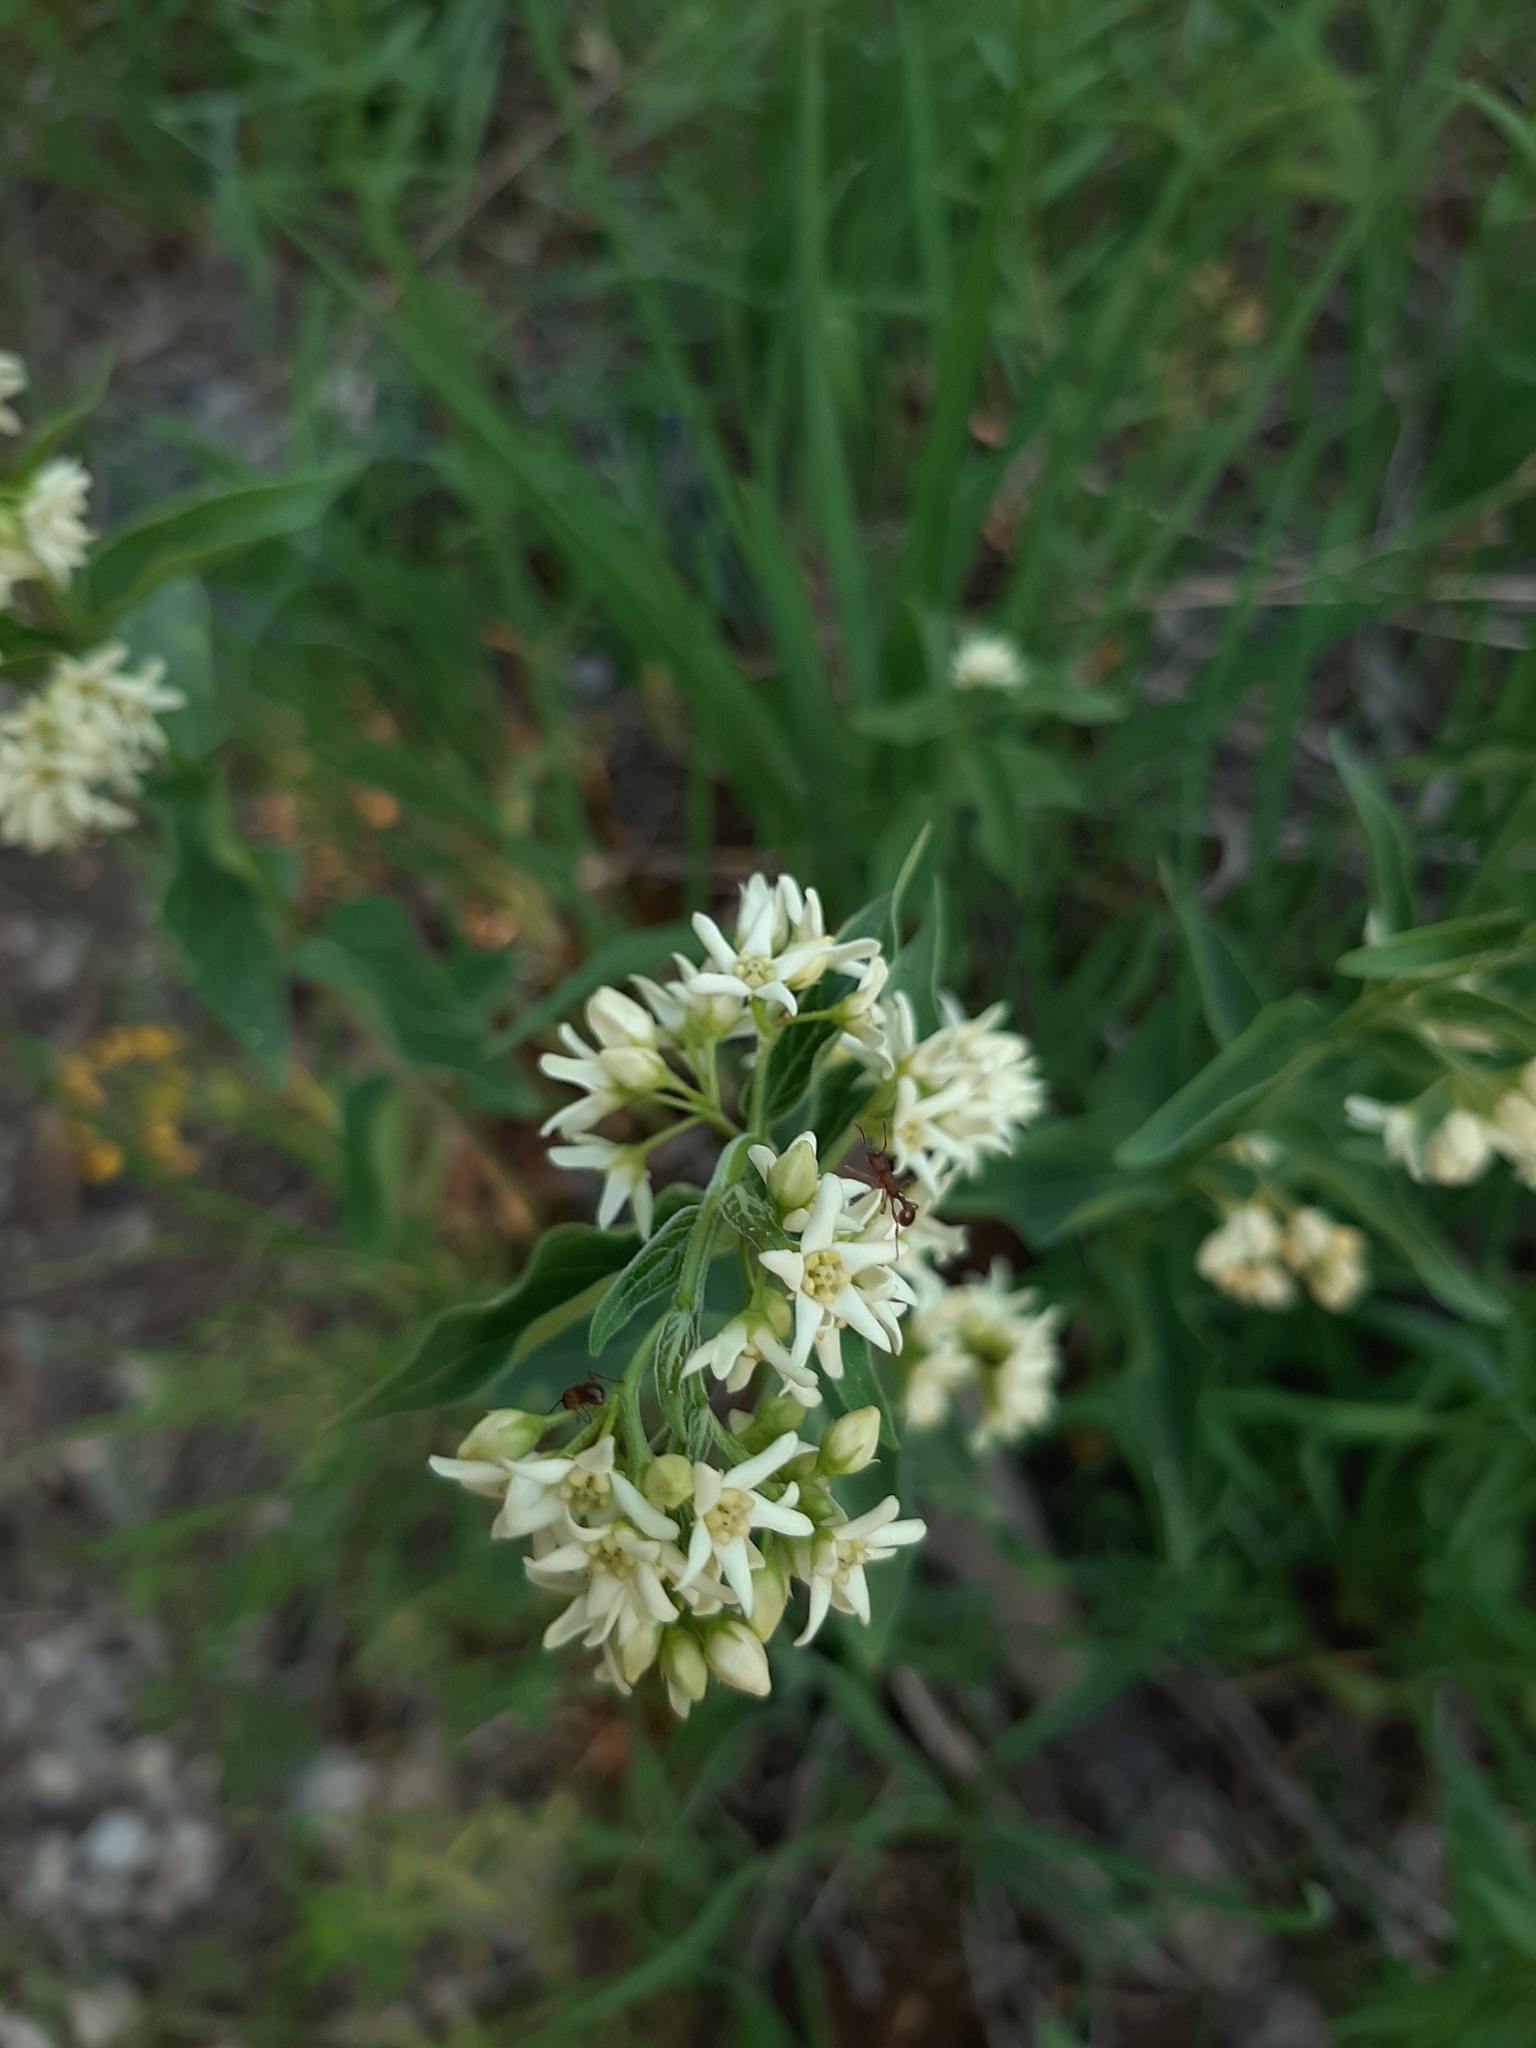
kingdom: Plantae
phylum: Tracheophyta
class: Magnoliopsida
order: Gentianales
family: Apocynaceae
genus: Vincetoxicum
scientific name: Vincetoxicum hirundinaria
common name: White swallowwort
